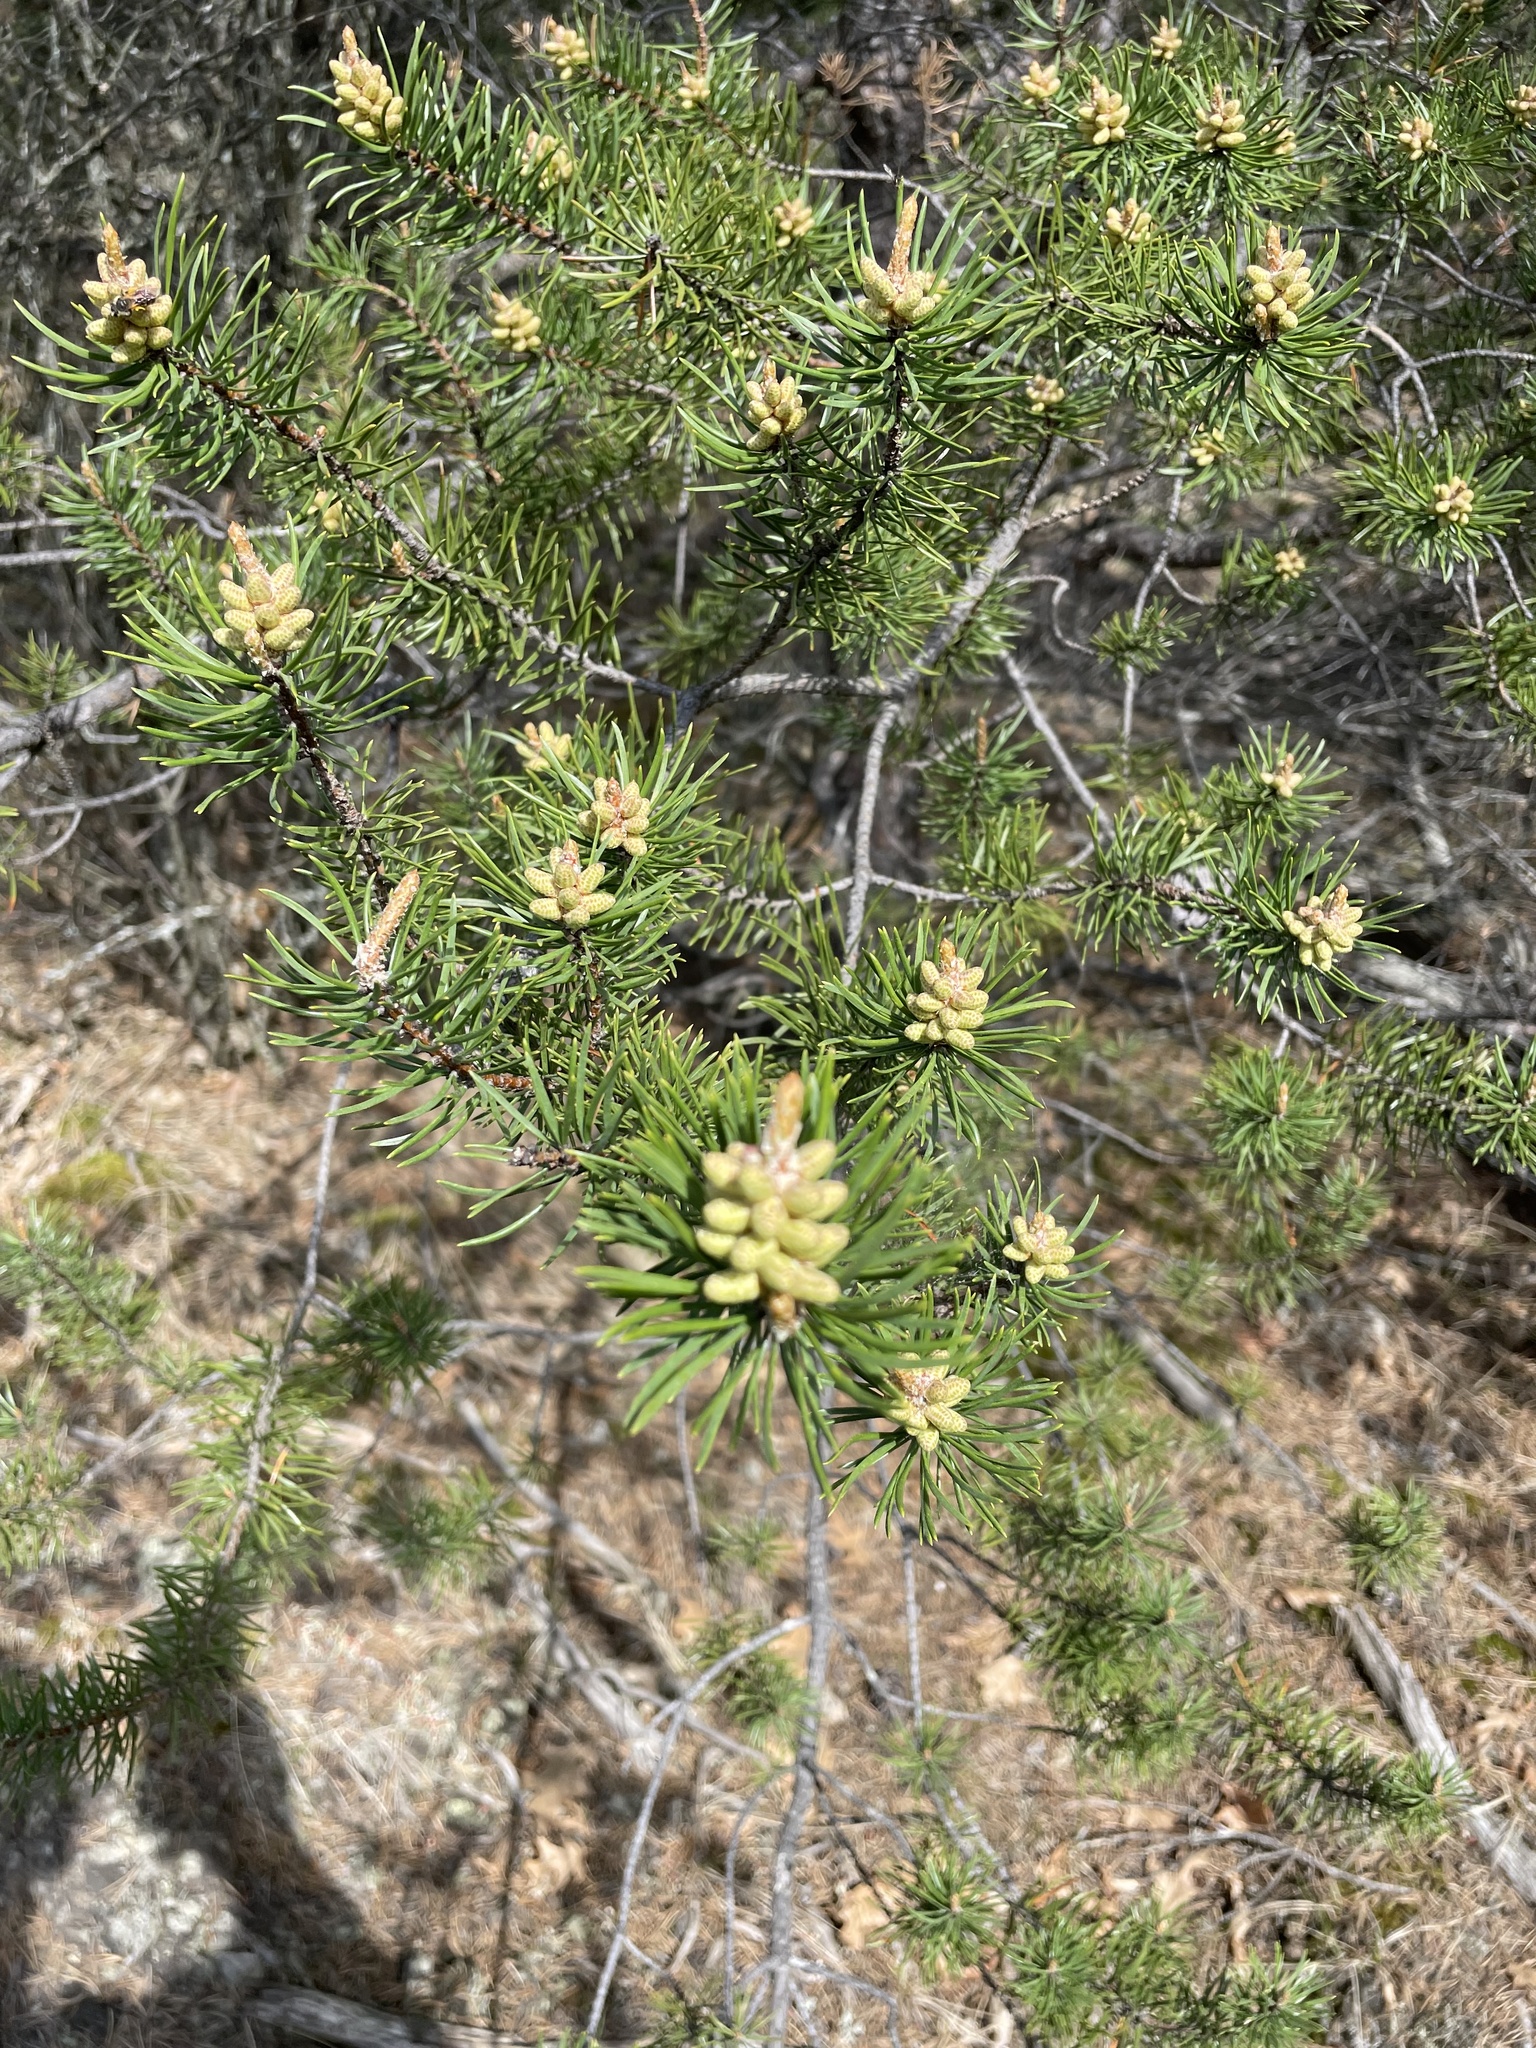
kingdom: Plantae
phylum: Tracheophyta
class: Pinopsida
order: Pinales
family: Pinaceae
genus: Pinus
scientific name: Pinus banksiana
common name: Jack pine
